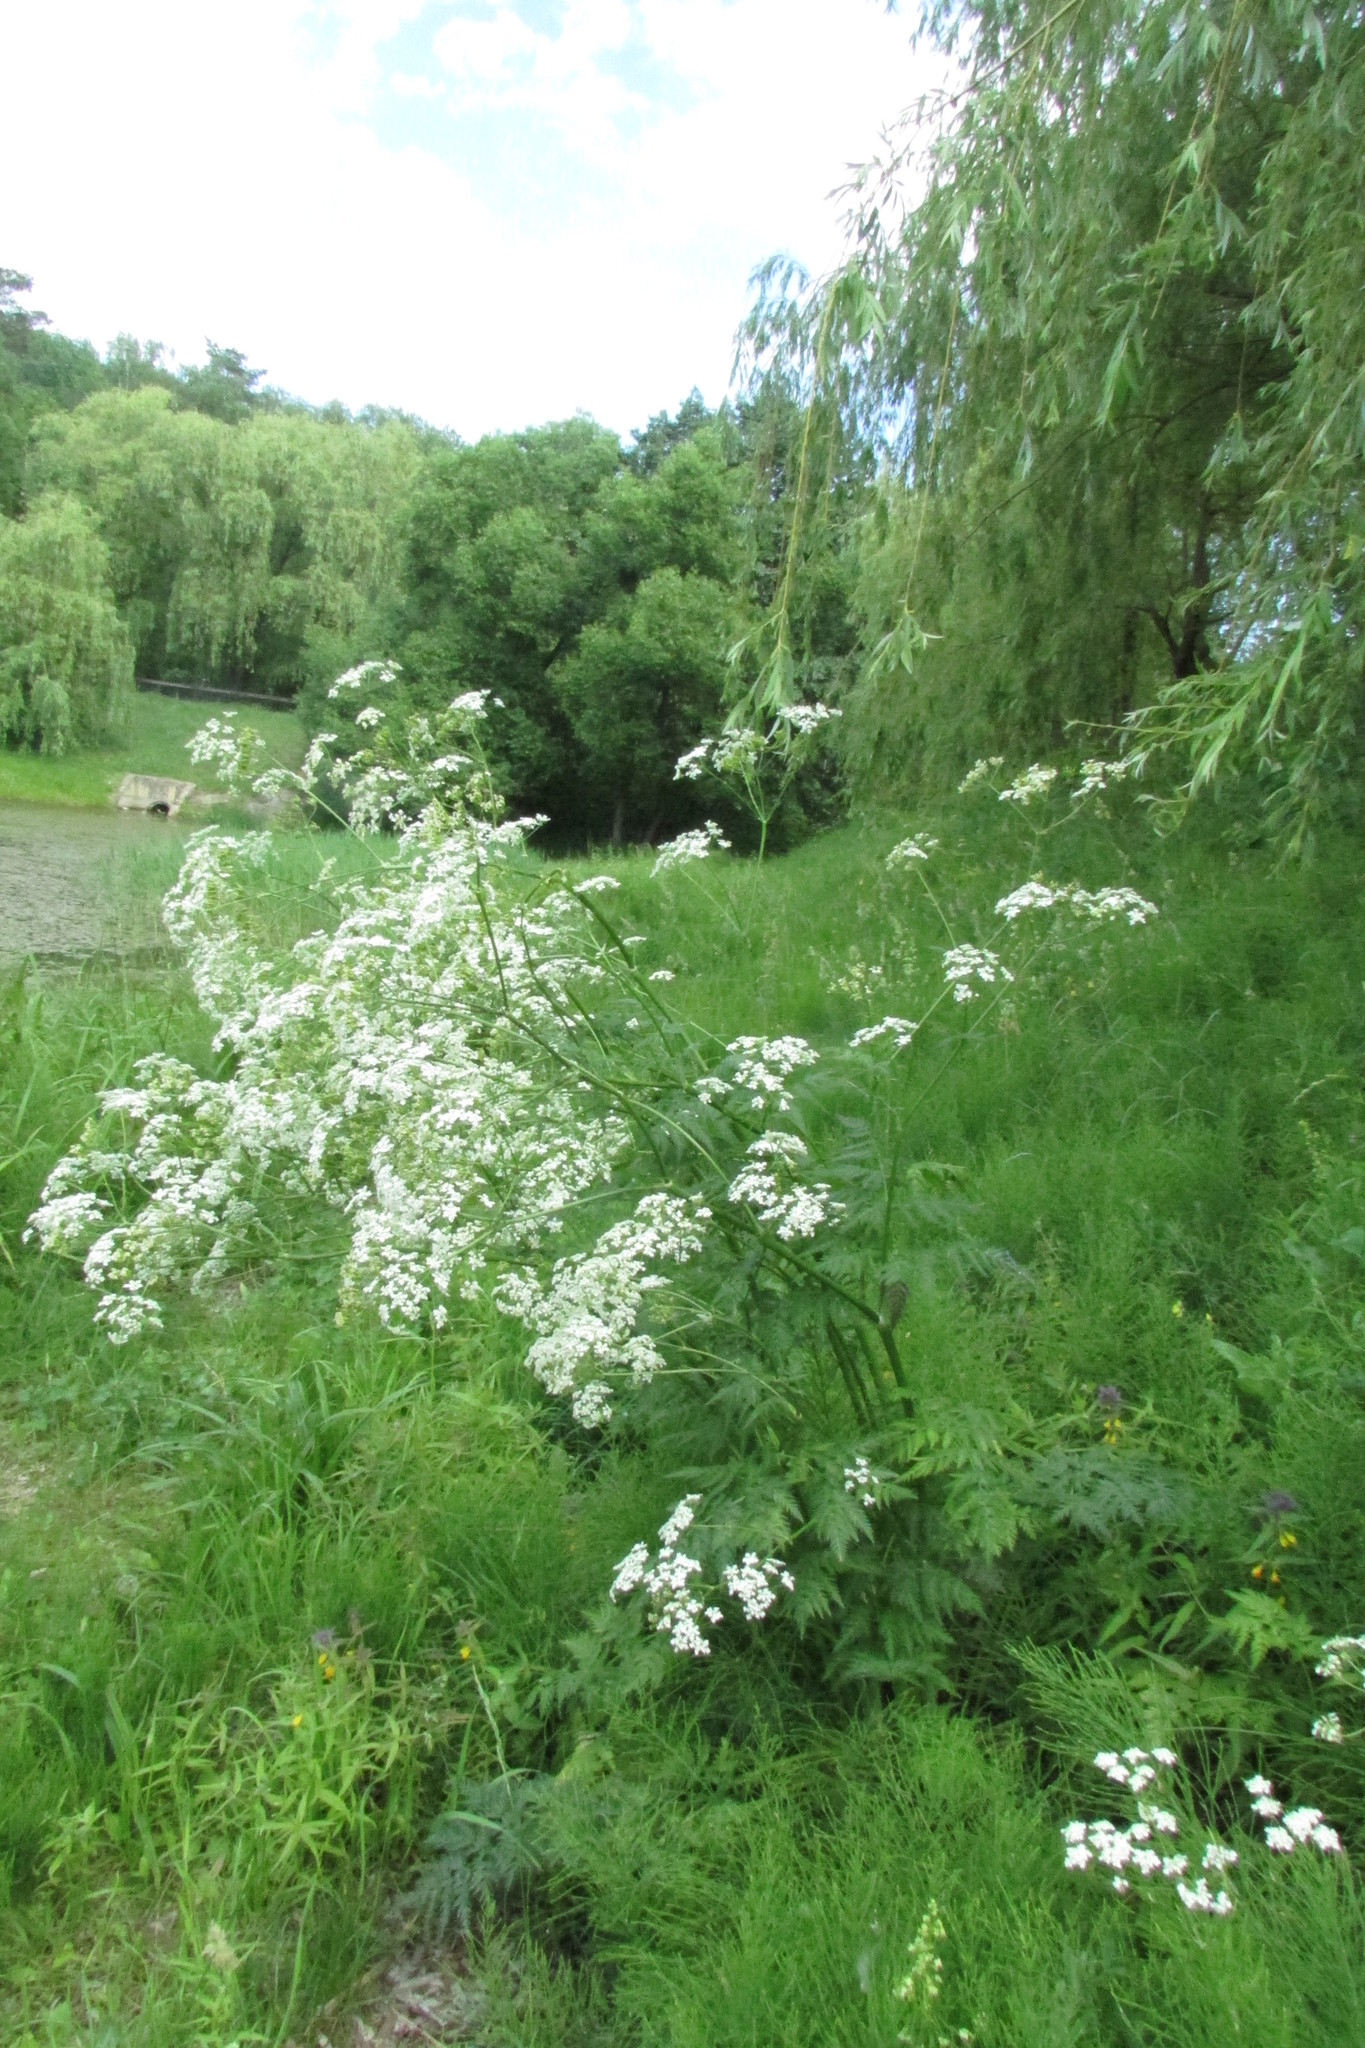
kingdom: Plantae
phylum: Tracheophyta
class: Magnoliopsida
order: Apiales
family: Apiaceae
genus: Anthriscus
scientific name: Anthriscus sylvestris
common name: Cow parsley
